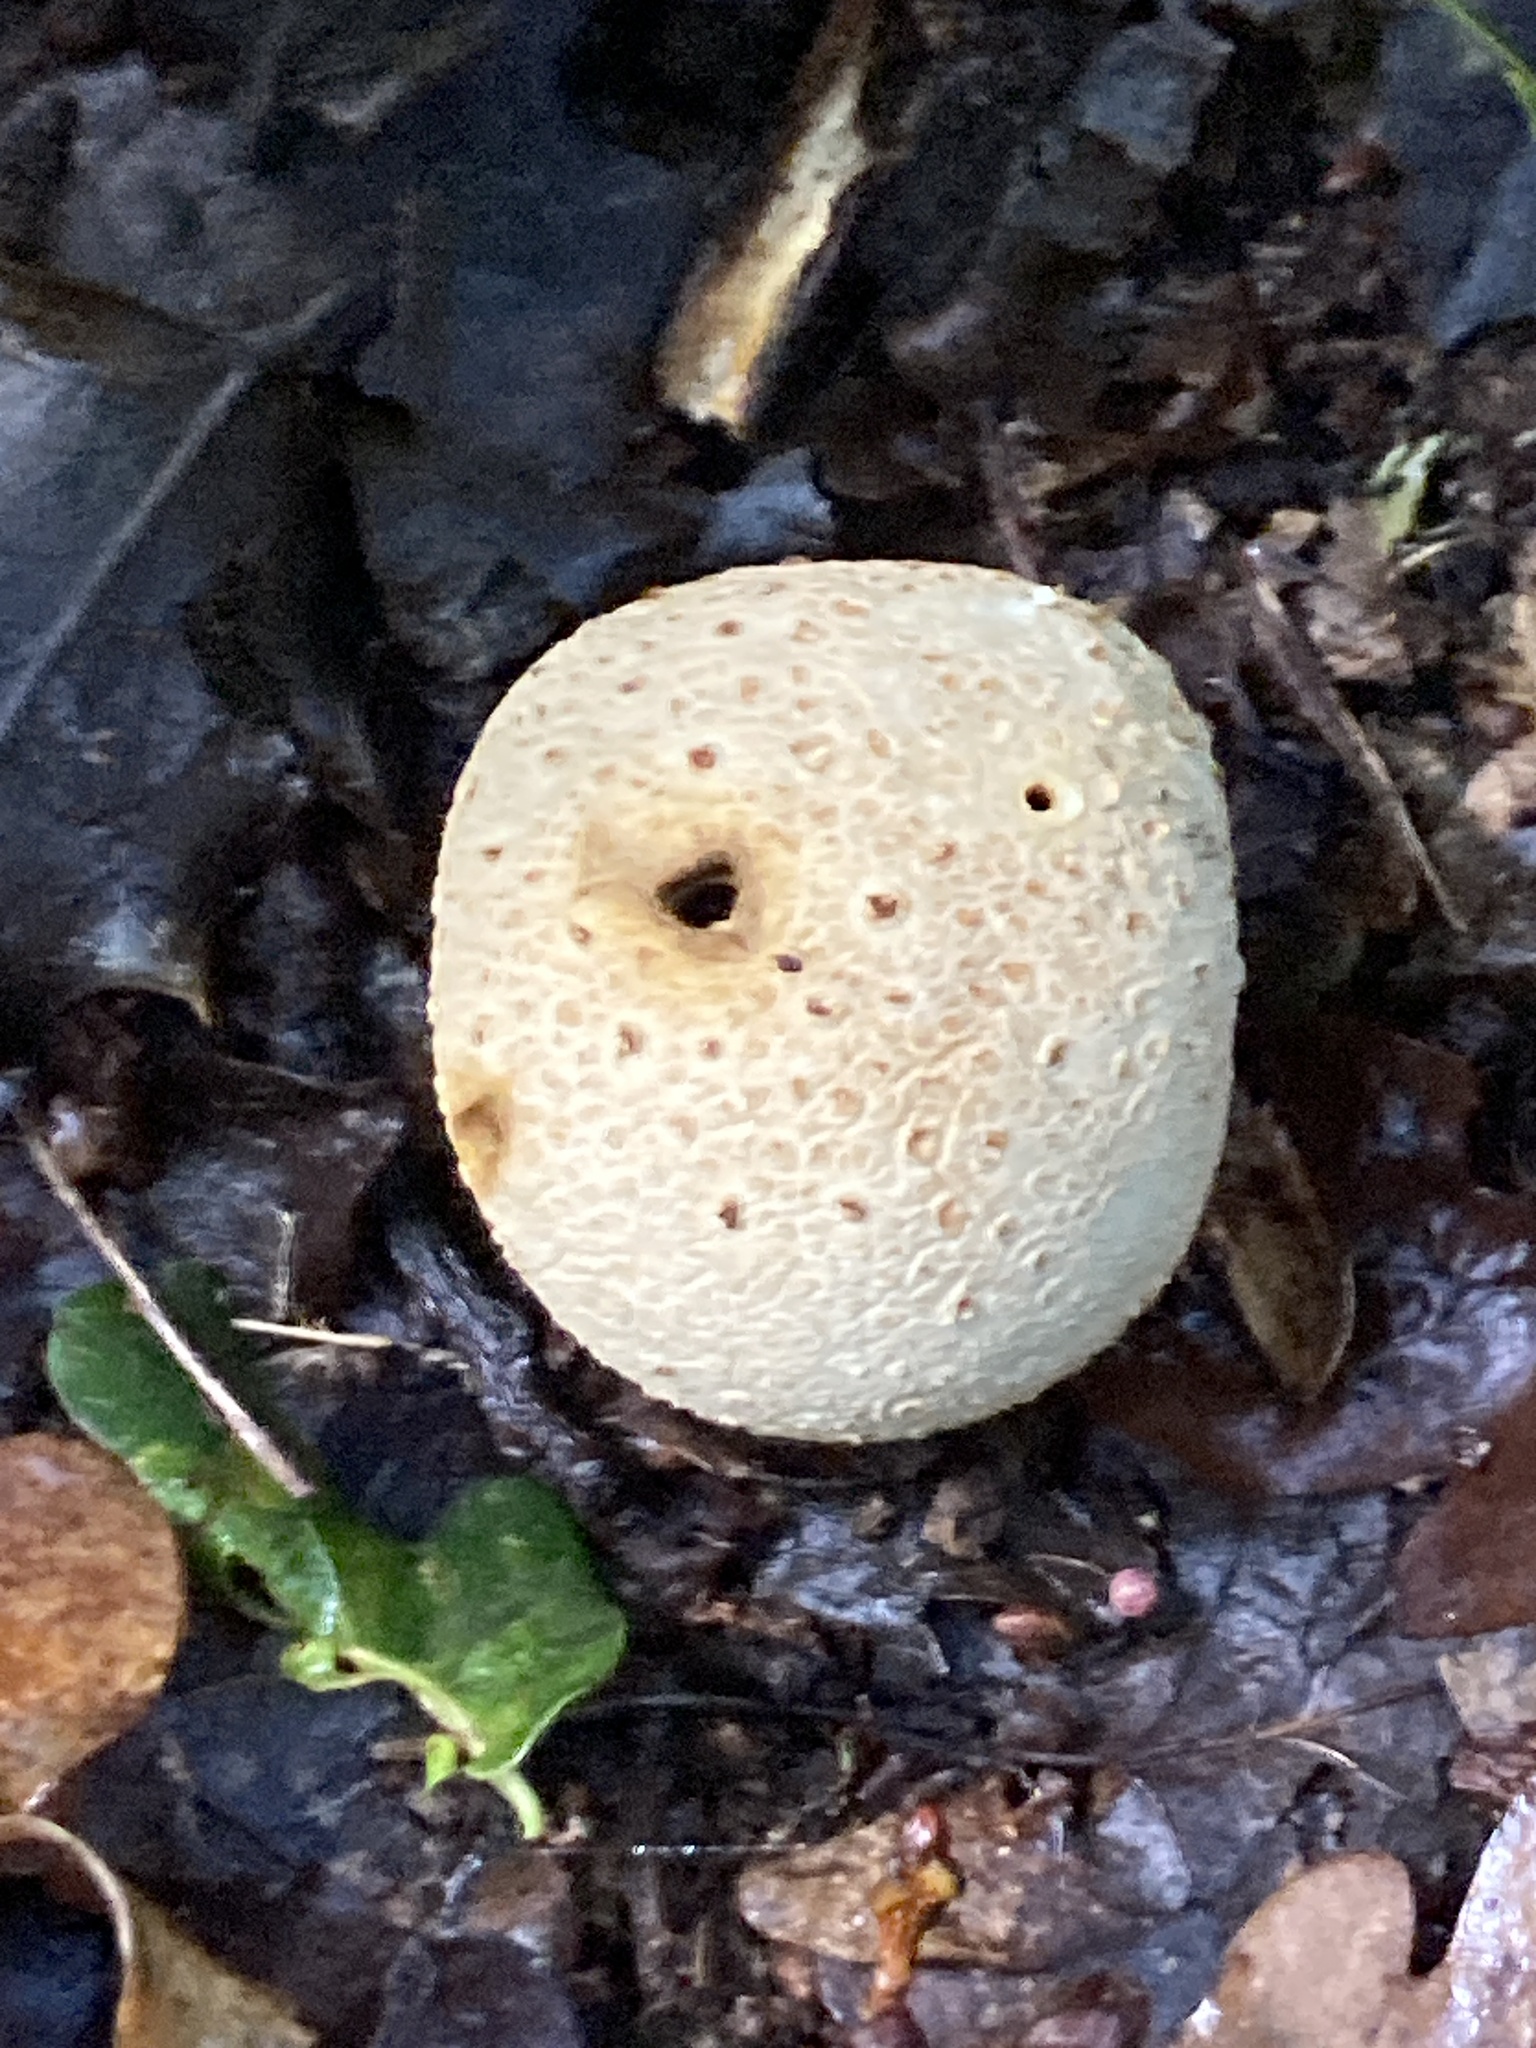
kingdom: Fungi
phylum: Basidiomycota
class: Agaricomycetes
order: Boletales
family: Sclerodermataceae
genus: Scleroderma
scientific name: Scleroderma citrinum
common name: Common earthball
